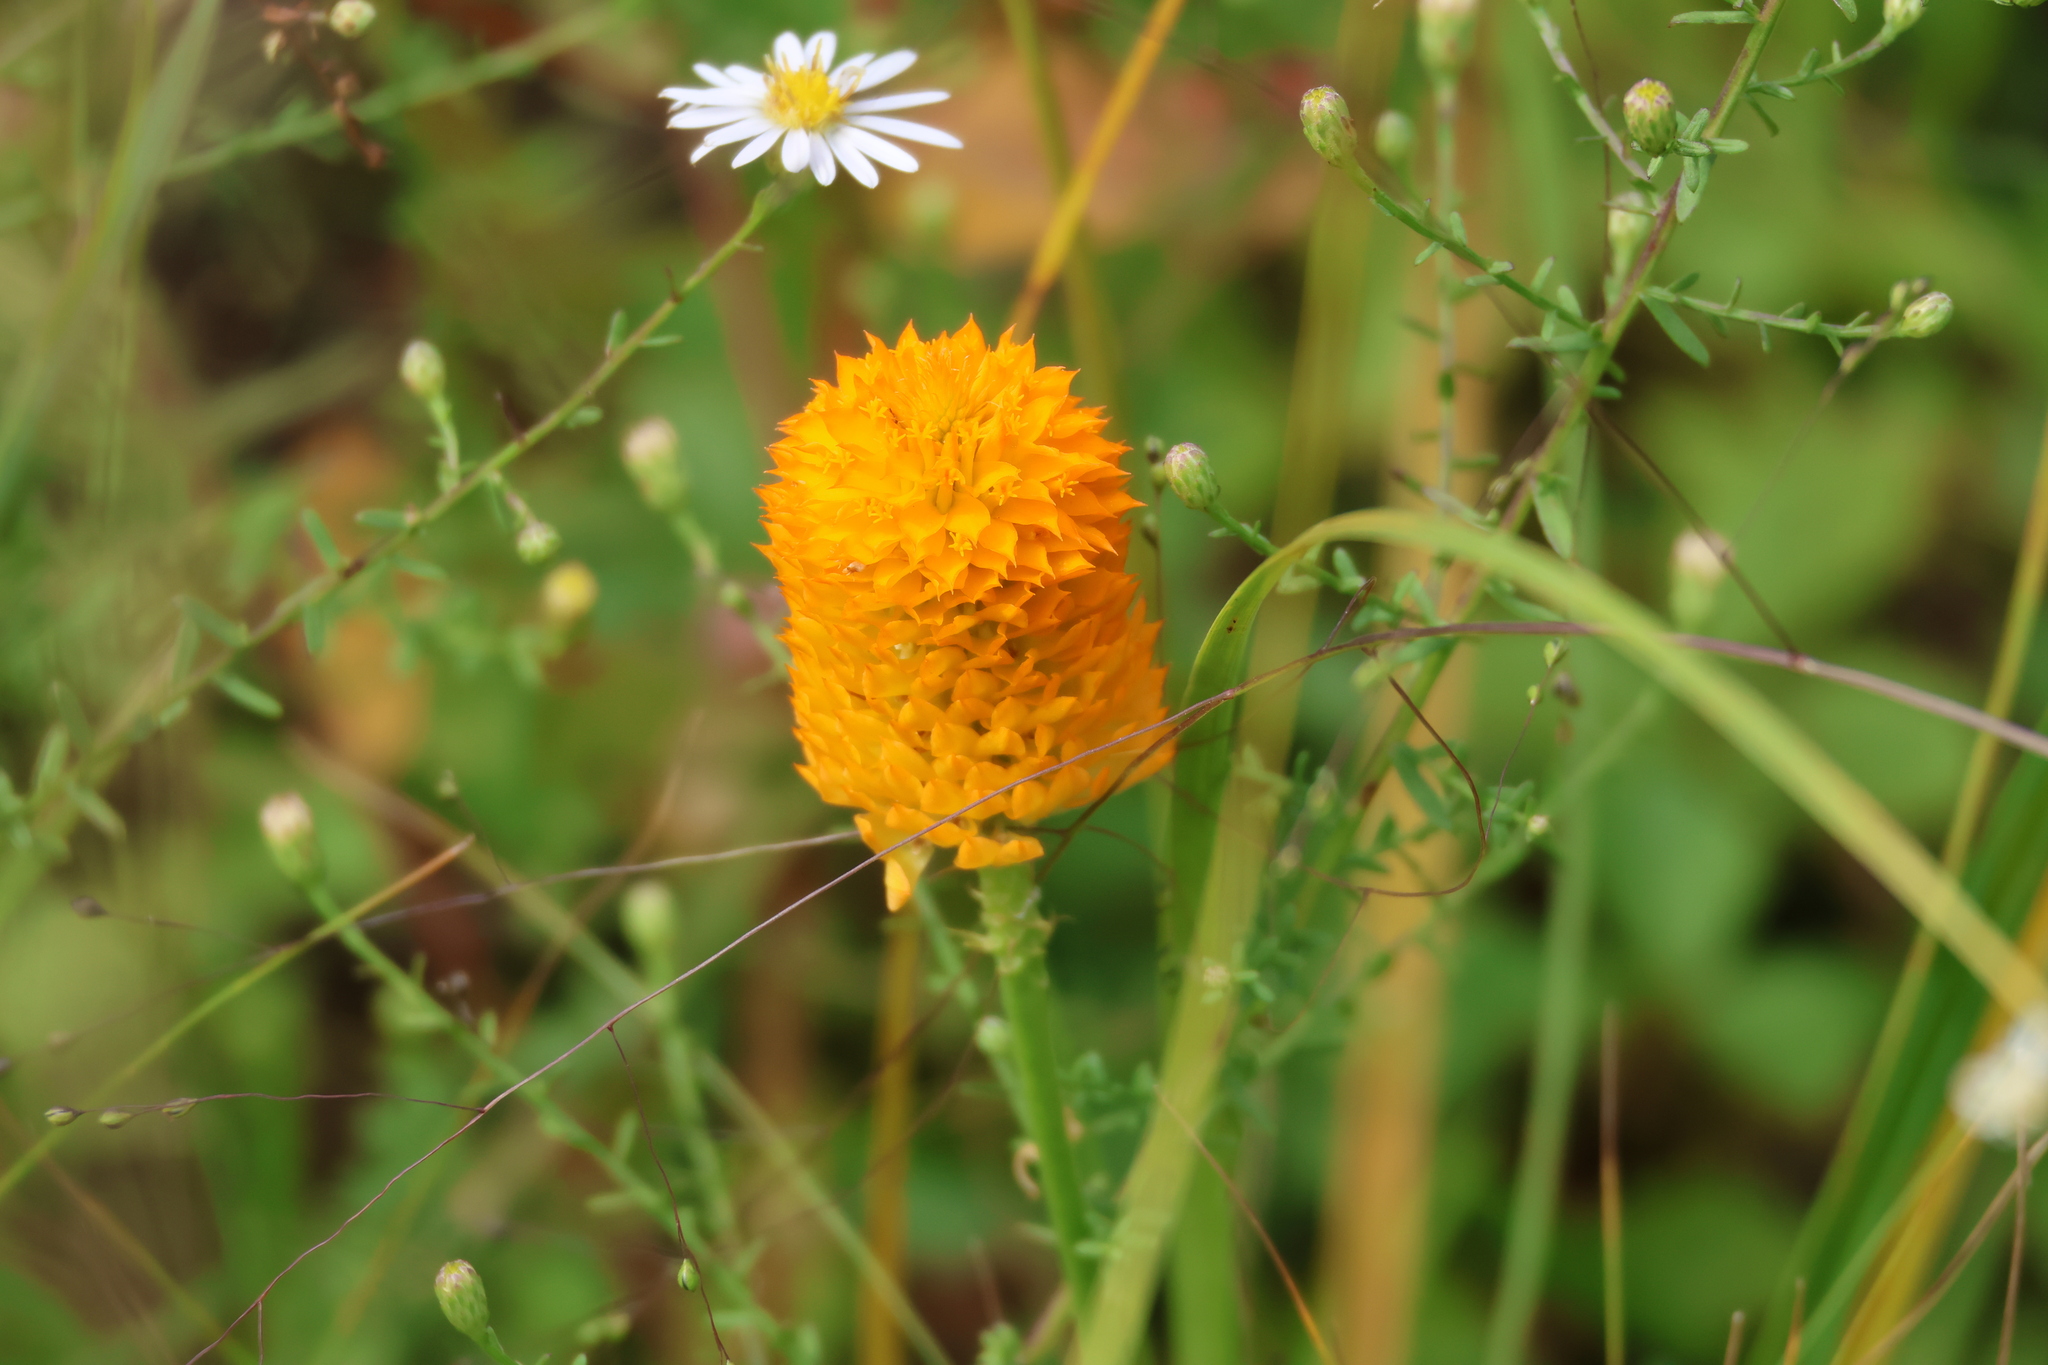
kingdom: Plantae
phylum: Tracheophyta
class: Magnoliopsida
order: Fabales
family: Polygalaceae
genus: Polygala
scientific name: Polygala lutea
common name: Orange milkwort
